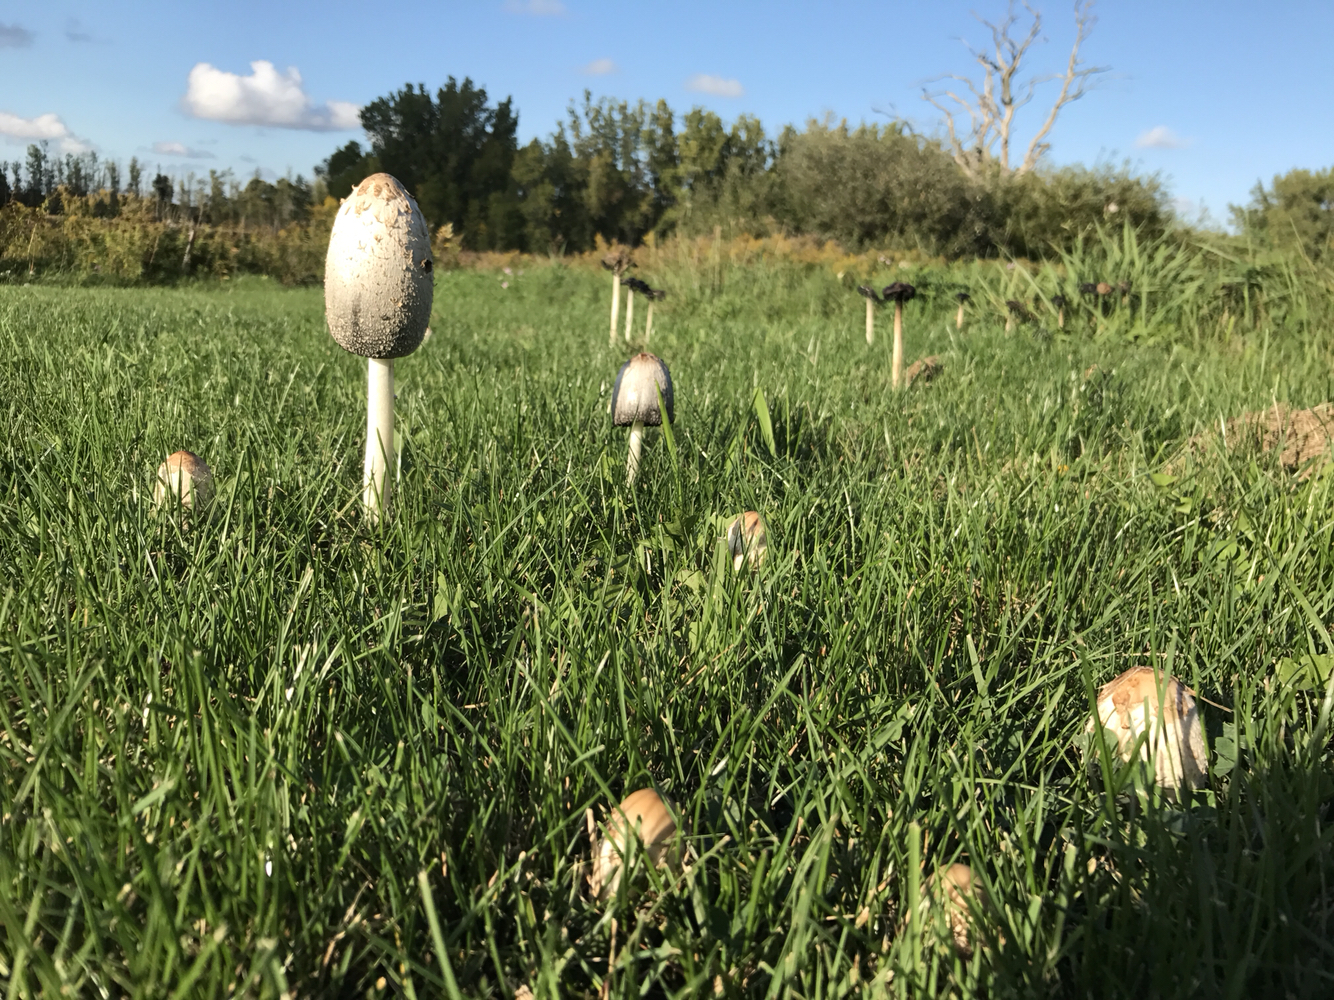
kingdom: Fungi
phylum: Basidiomycota
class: Agaricomycetes
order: Agaricales
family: Agaricaceae
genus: Coprinus
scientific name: Coprinus comatus
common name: Lawyer's wig
